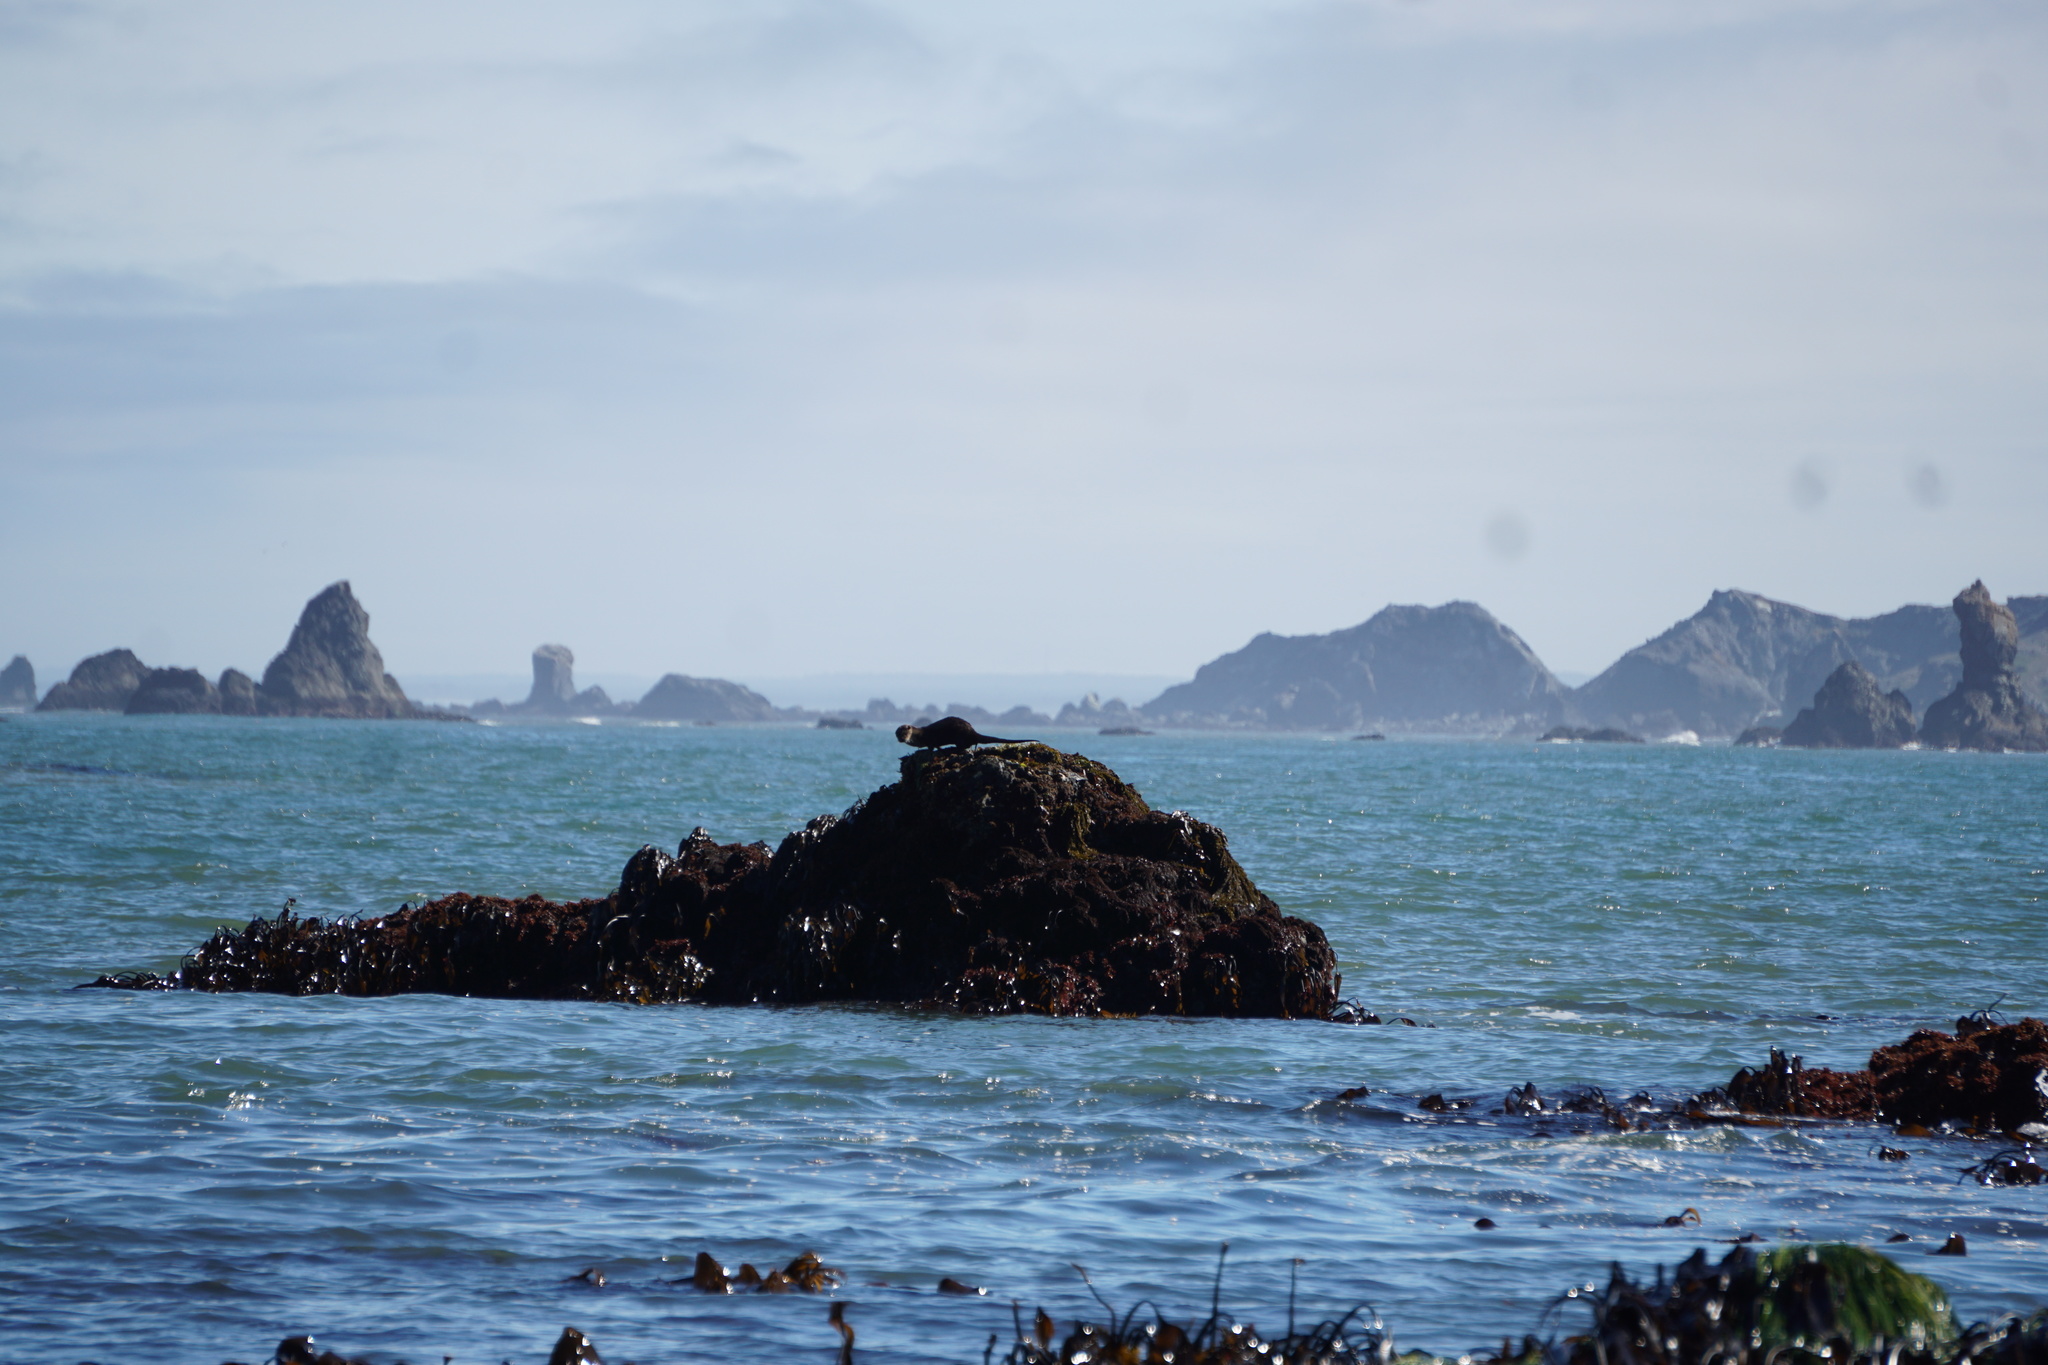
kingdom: Animalia
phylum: Chordata
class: Mammalia
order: Carnivora
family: Mustelidae
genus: Lontra
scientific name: Lontra canadensis
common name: North american river otter
